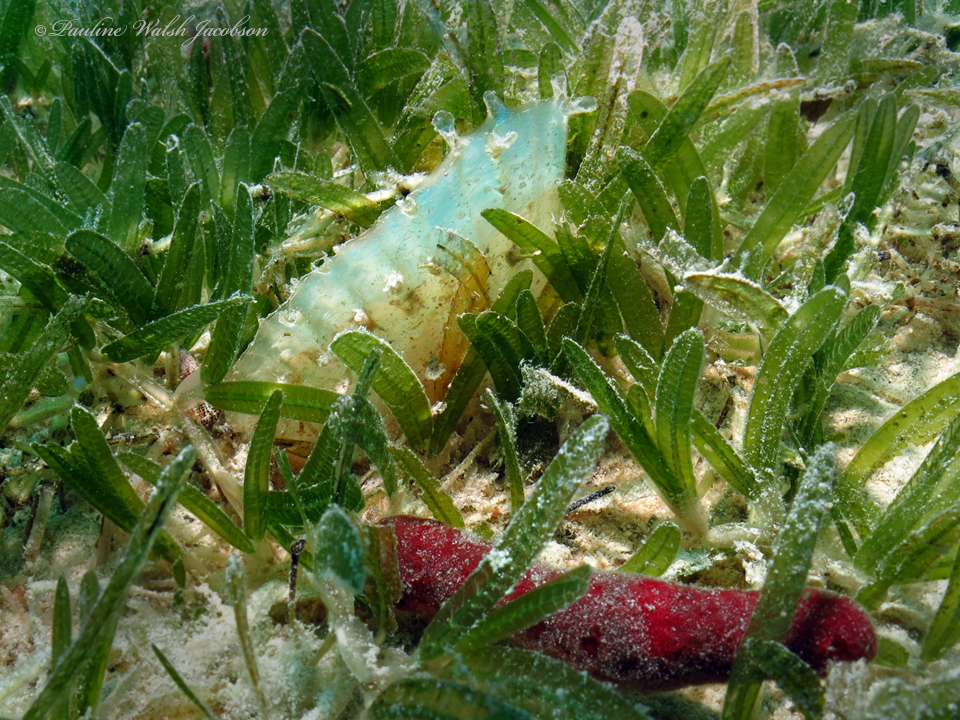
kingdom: Animalia
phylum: Mollusca
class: Bivalvia
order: Ostreida
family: Pinnidae
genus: Pinna
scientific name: Pinna carnea
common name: Amber penshell
